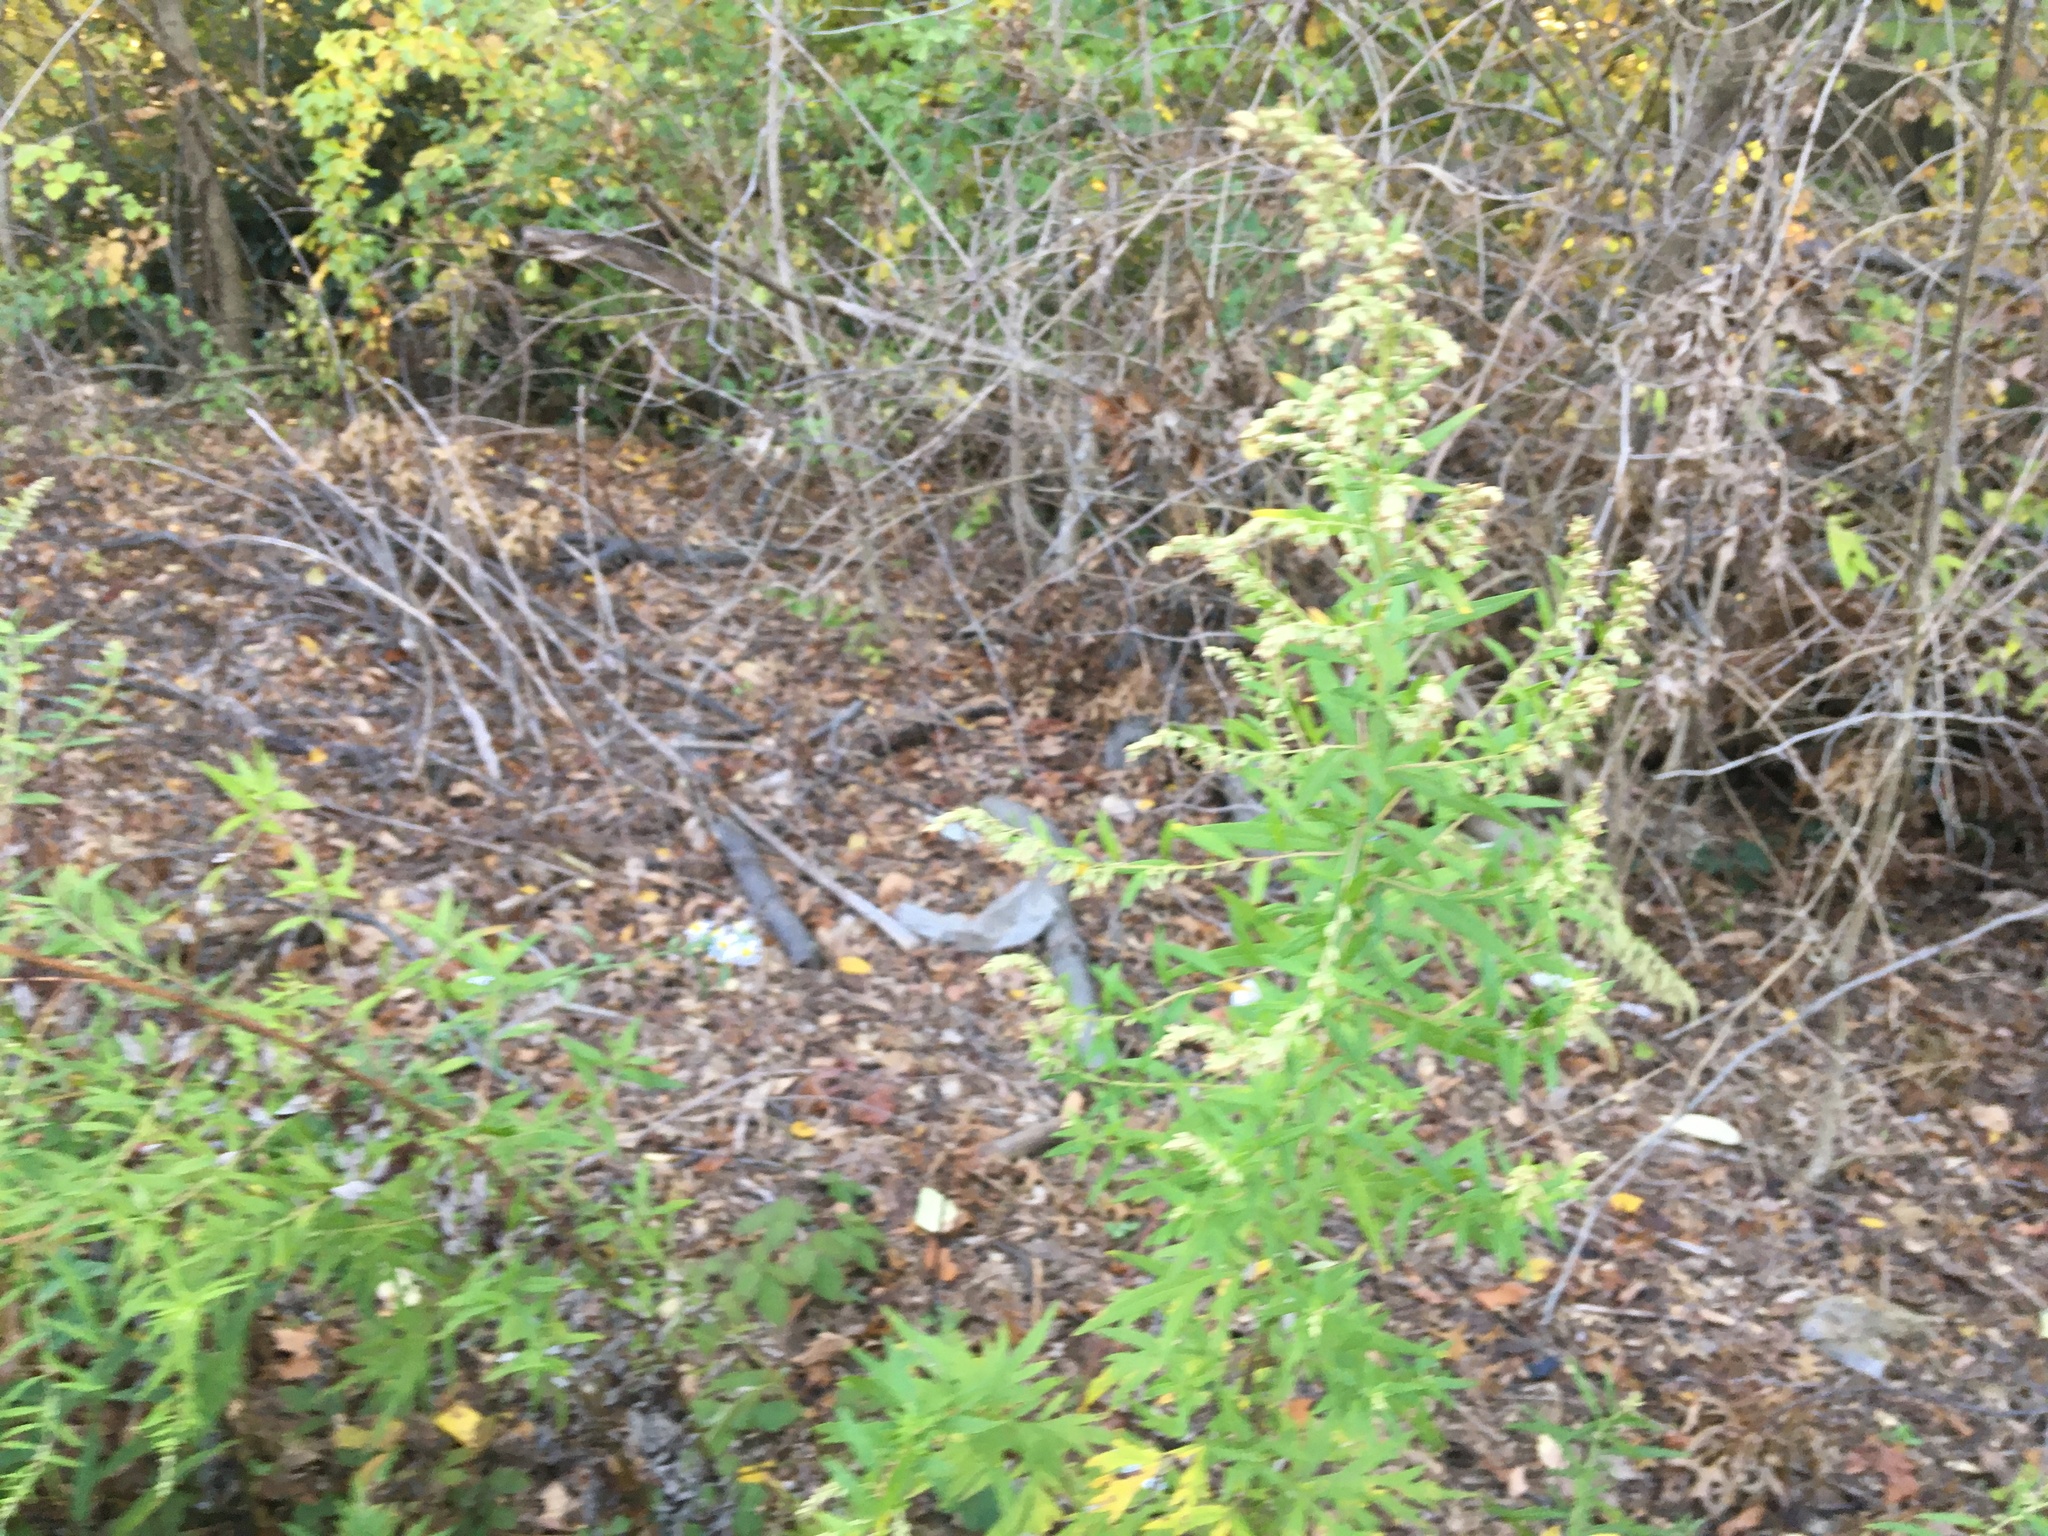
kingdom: Plantae
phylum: Tracheophyta
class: Magnoliopsida
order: Asterales
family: Asteraceae
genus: Artemisia
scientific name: Artemisia vulgaris
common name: Mugwort
